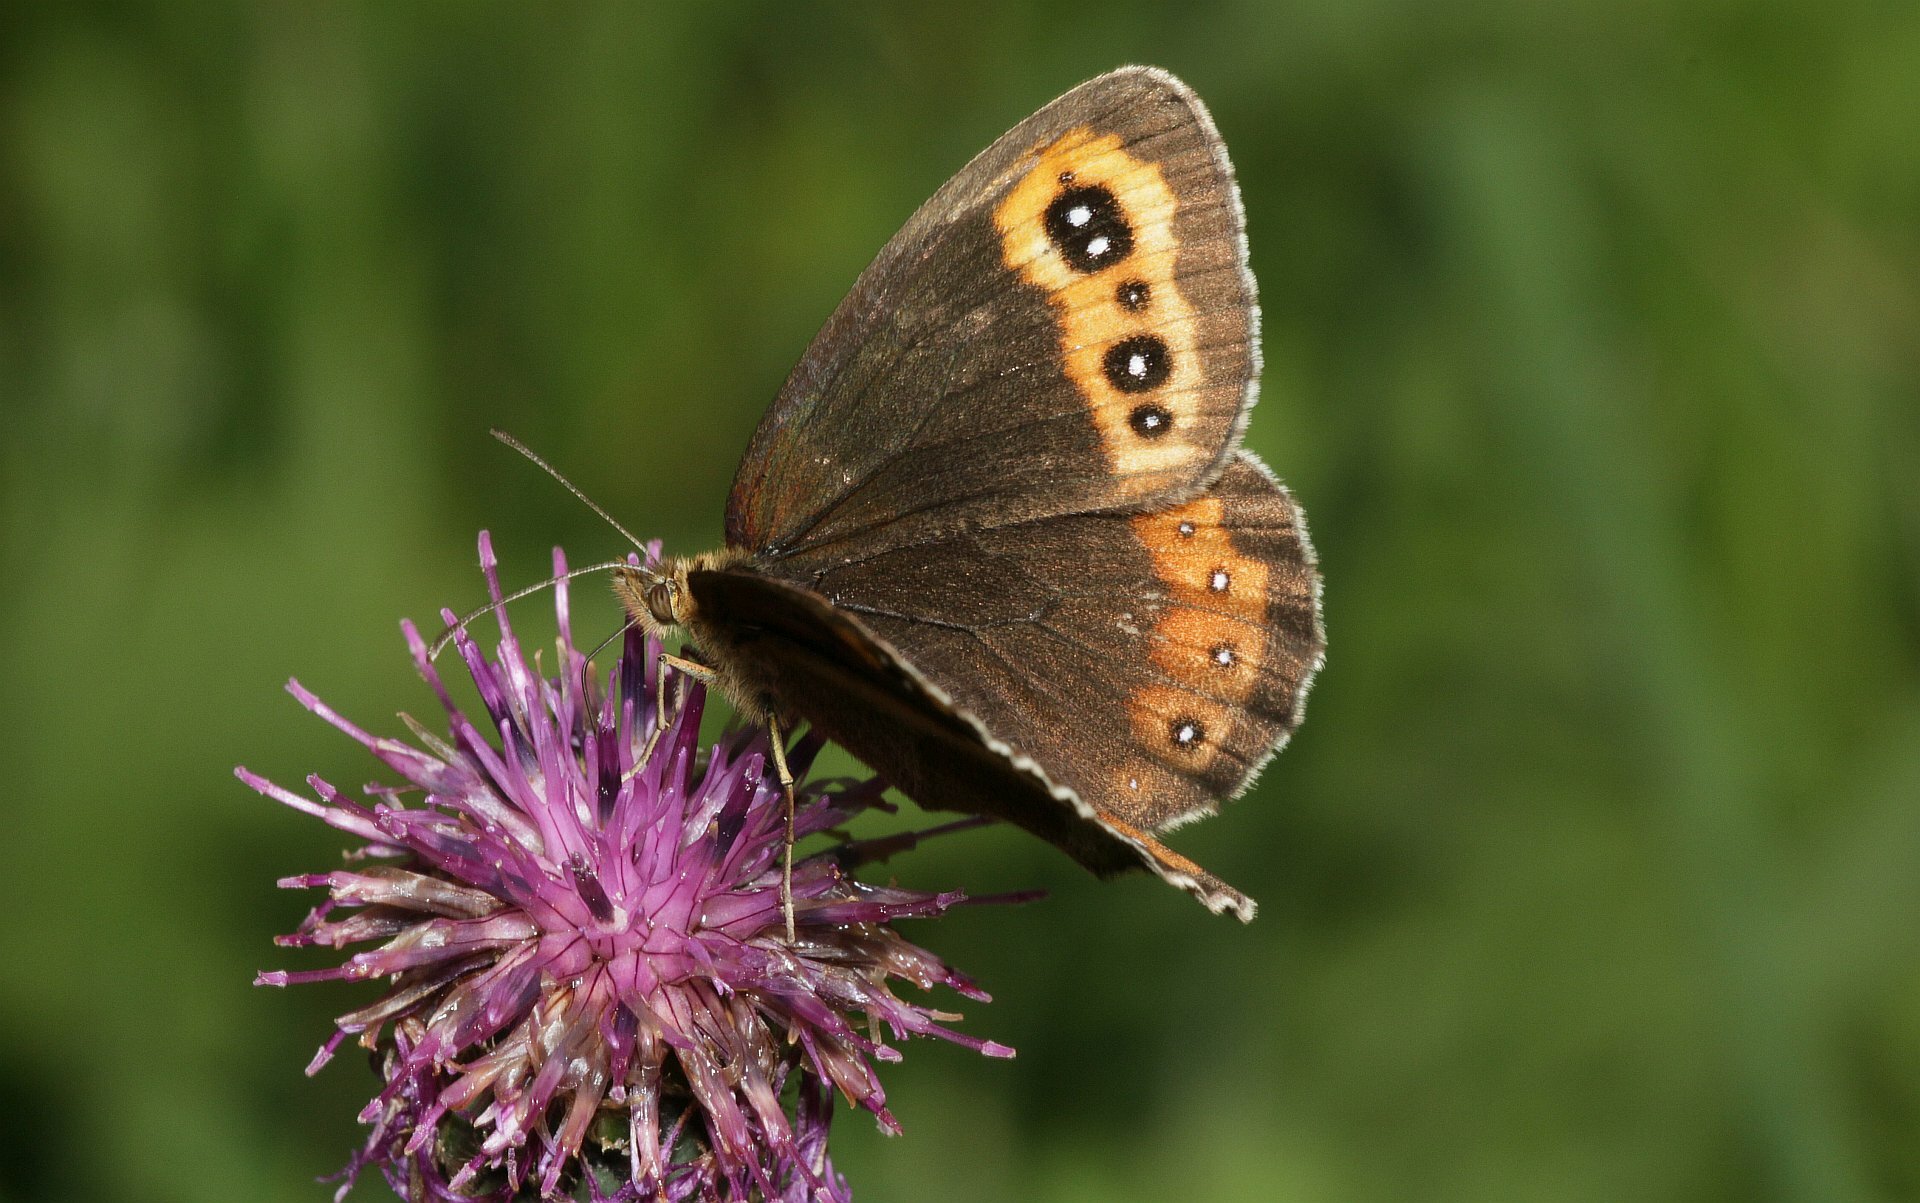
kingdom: Animalia
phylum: Arthropoda
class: Insecta
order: Lepidoptera
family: Nymphalidae
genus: Erebia
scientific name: Erebia aethiops
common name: Scotch argus
